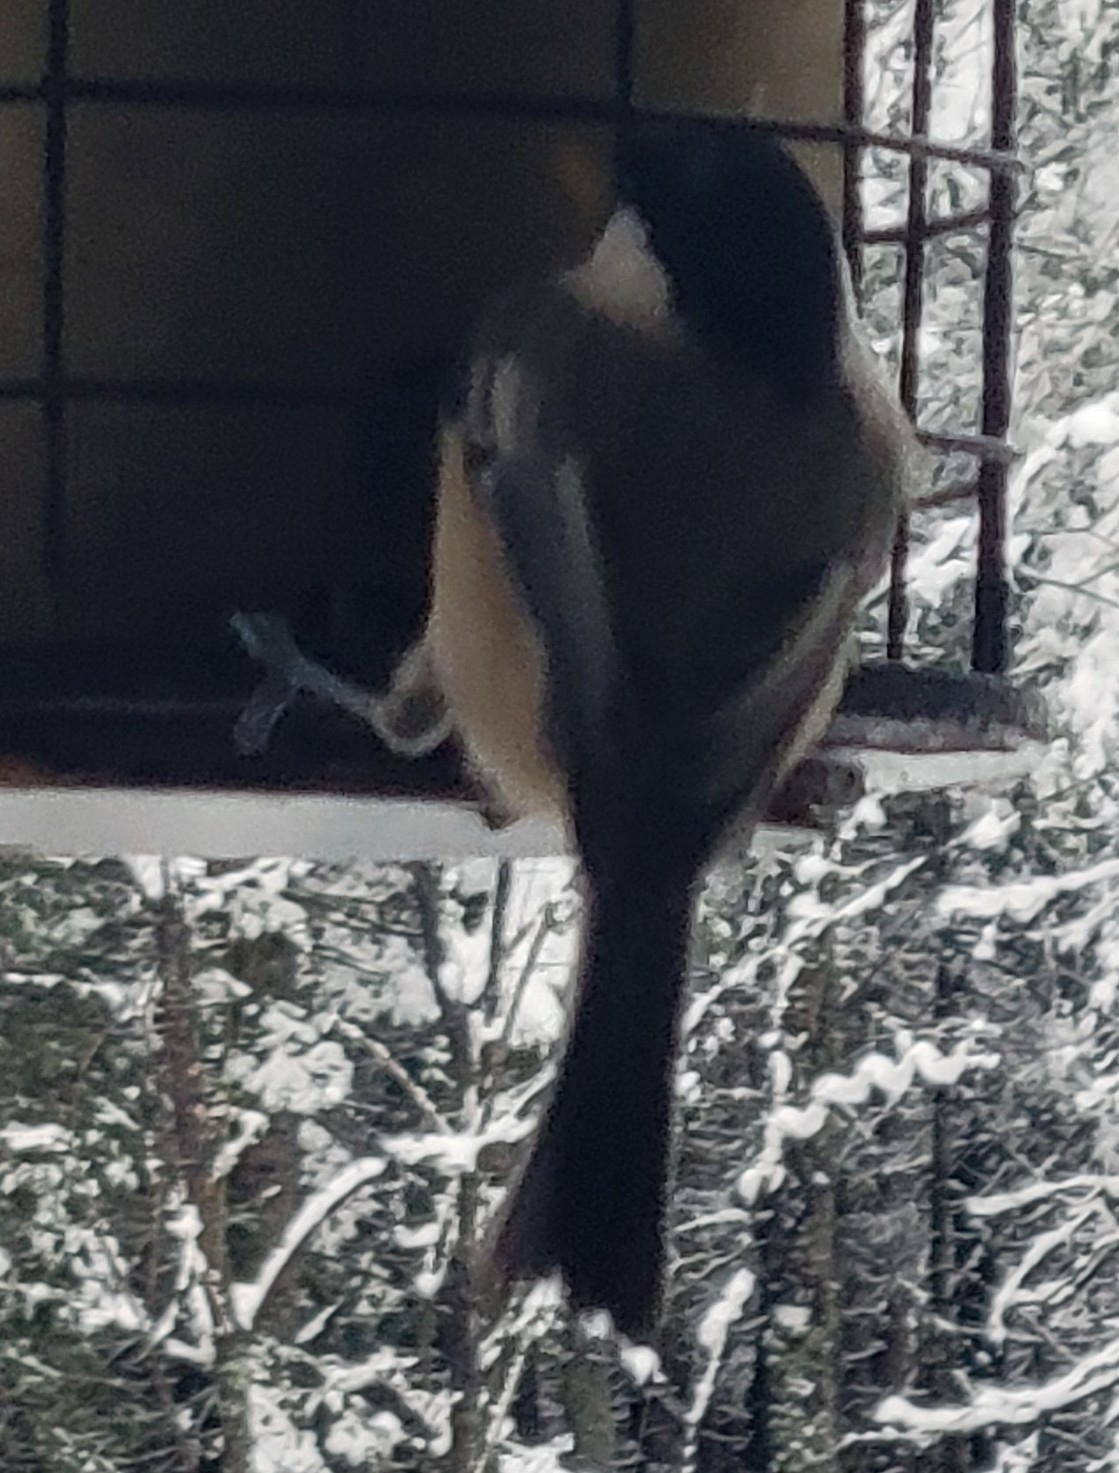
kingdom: Animalia
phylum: Chordata
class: Aves
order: Passeriformes
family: Paridae
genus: Poecile
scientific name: Poecile atricapillus
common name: Black-capped chickadee
